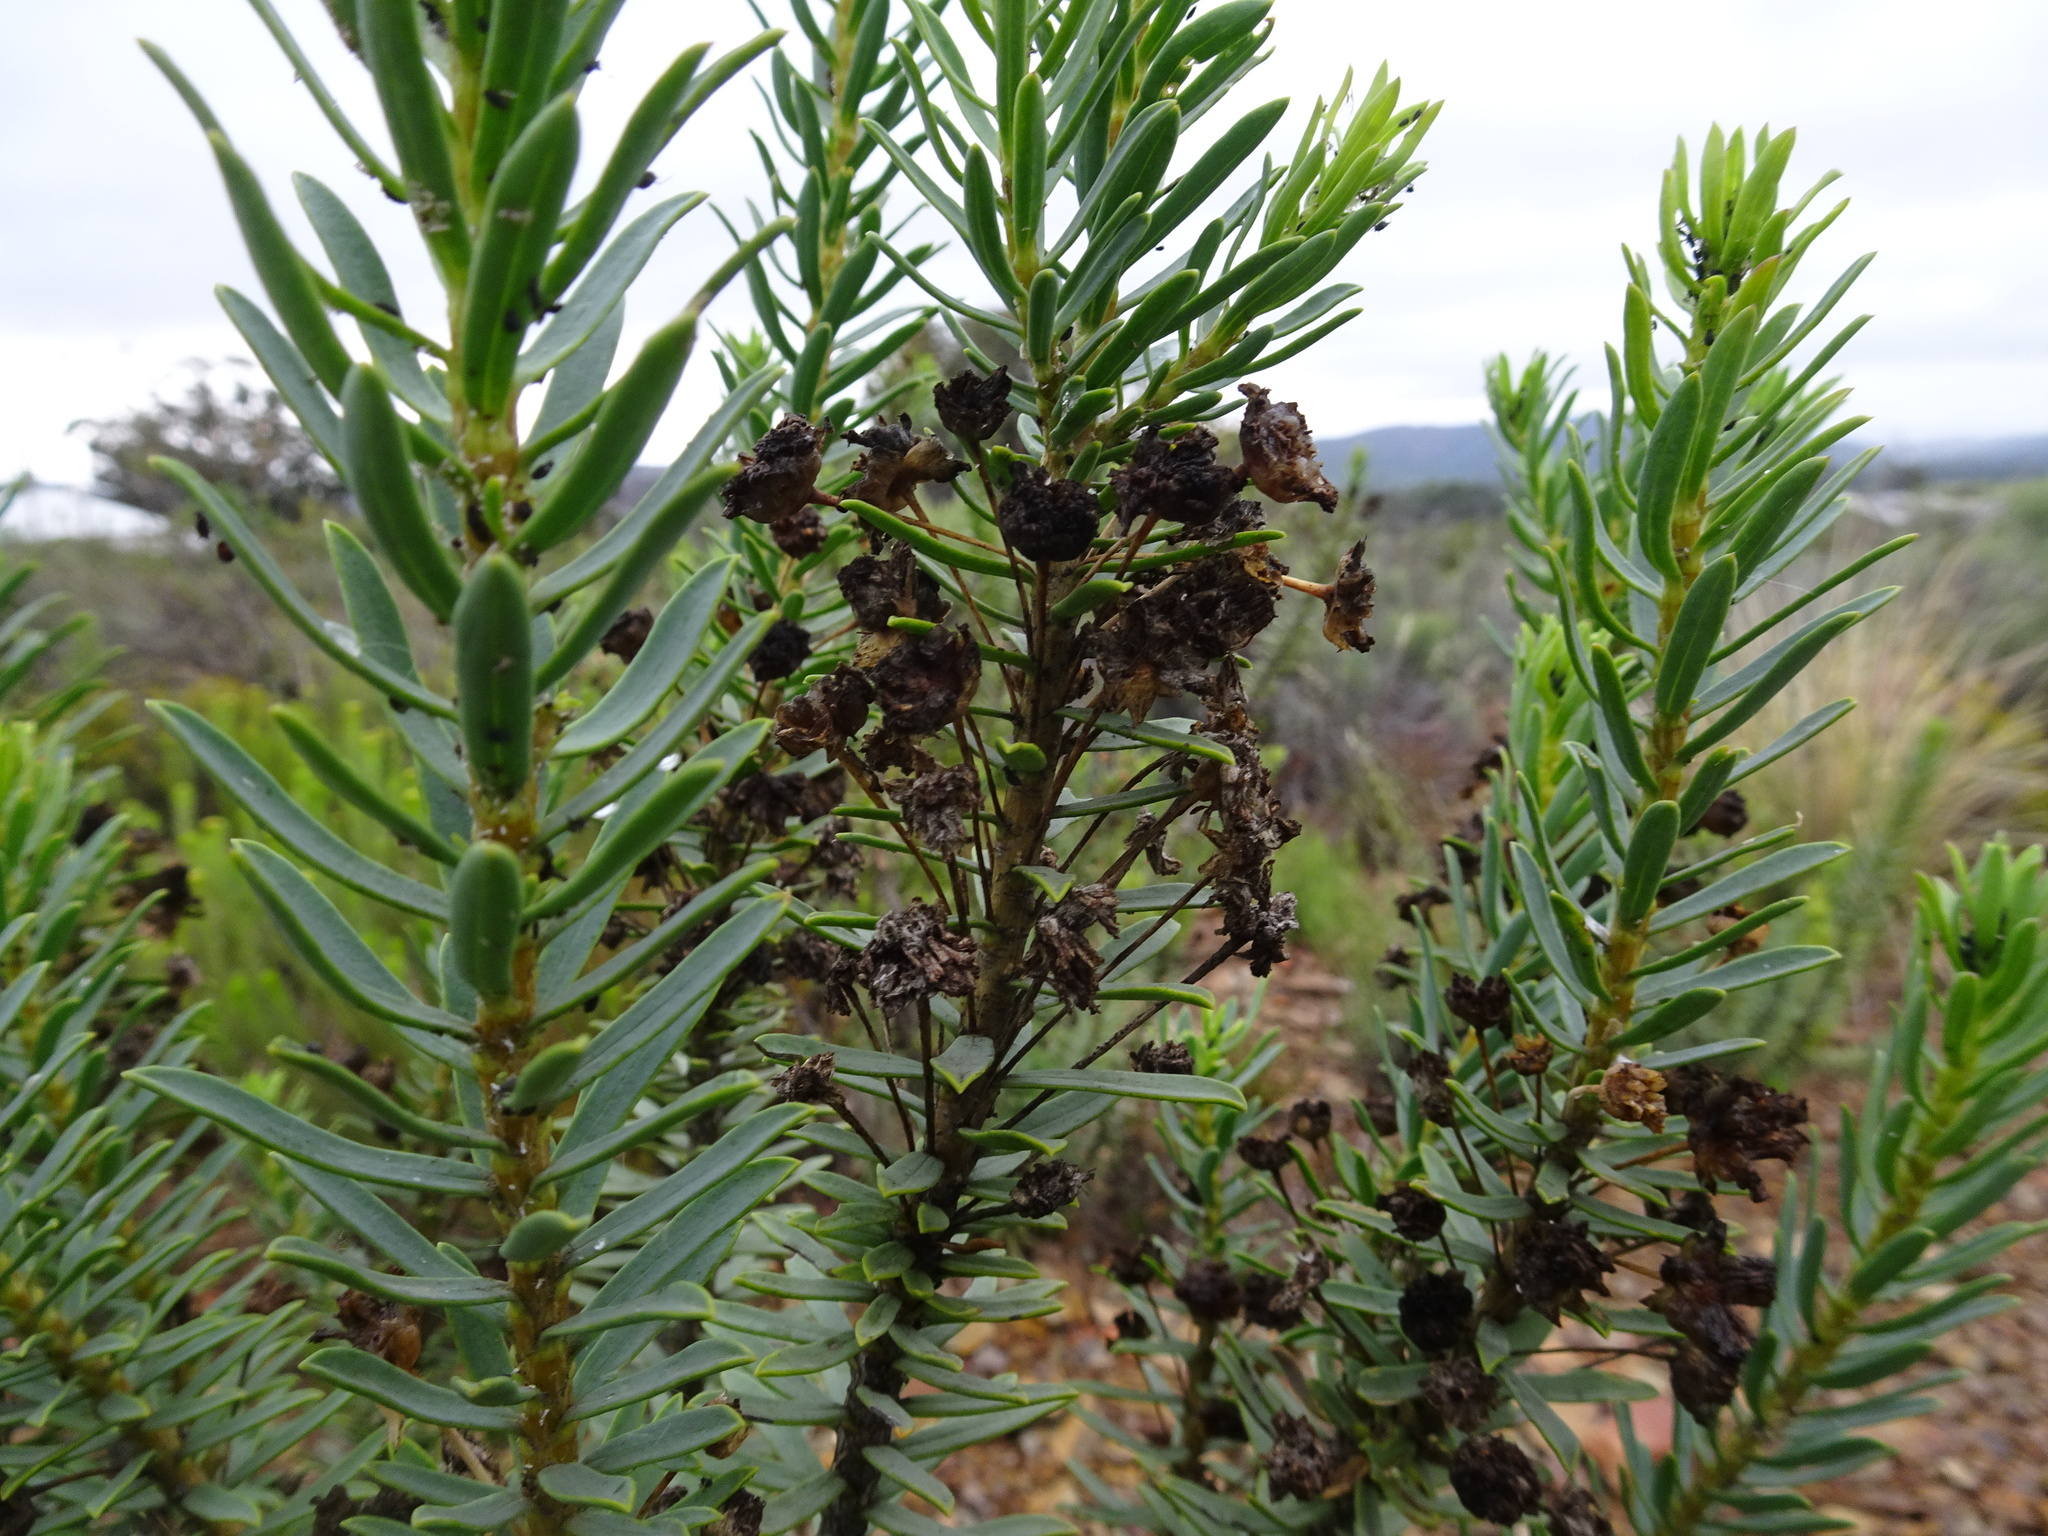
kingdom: Plantae
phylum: Tracheophyta
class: Magnoliopsida
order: Asterales
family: Asteraceae
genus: Euryops
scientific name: Euryops lateriflorus
